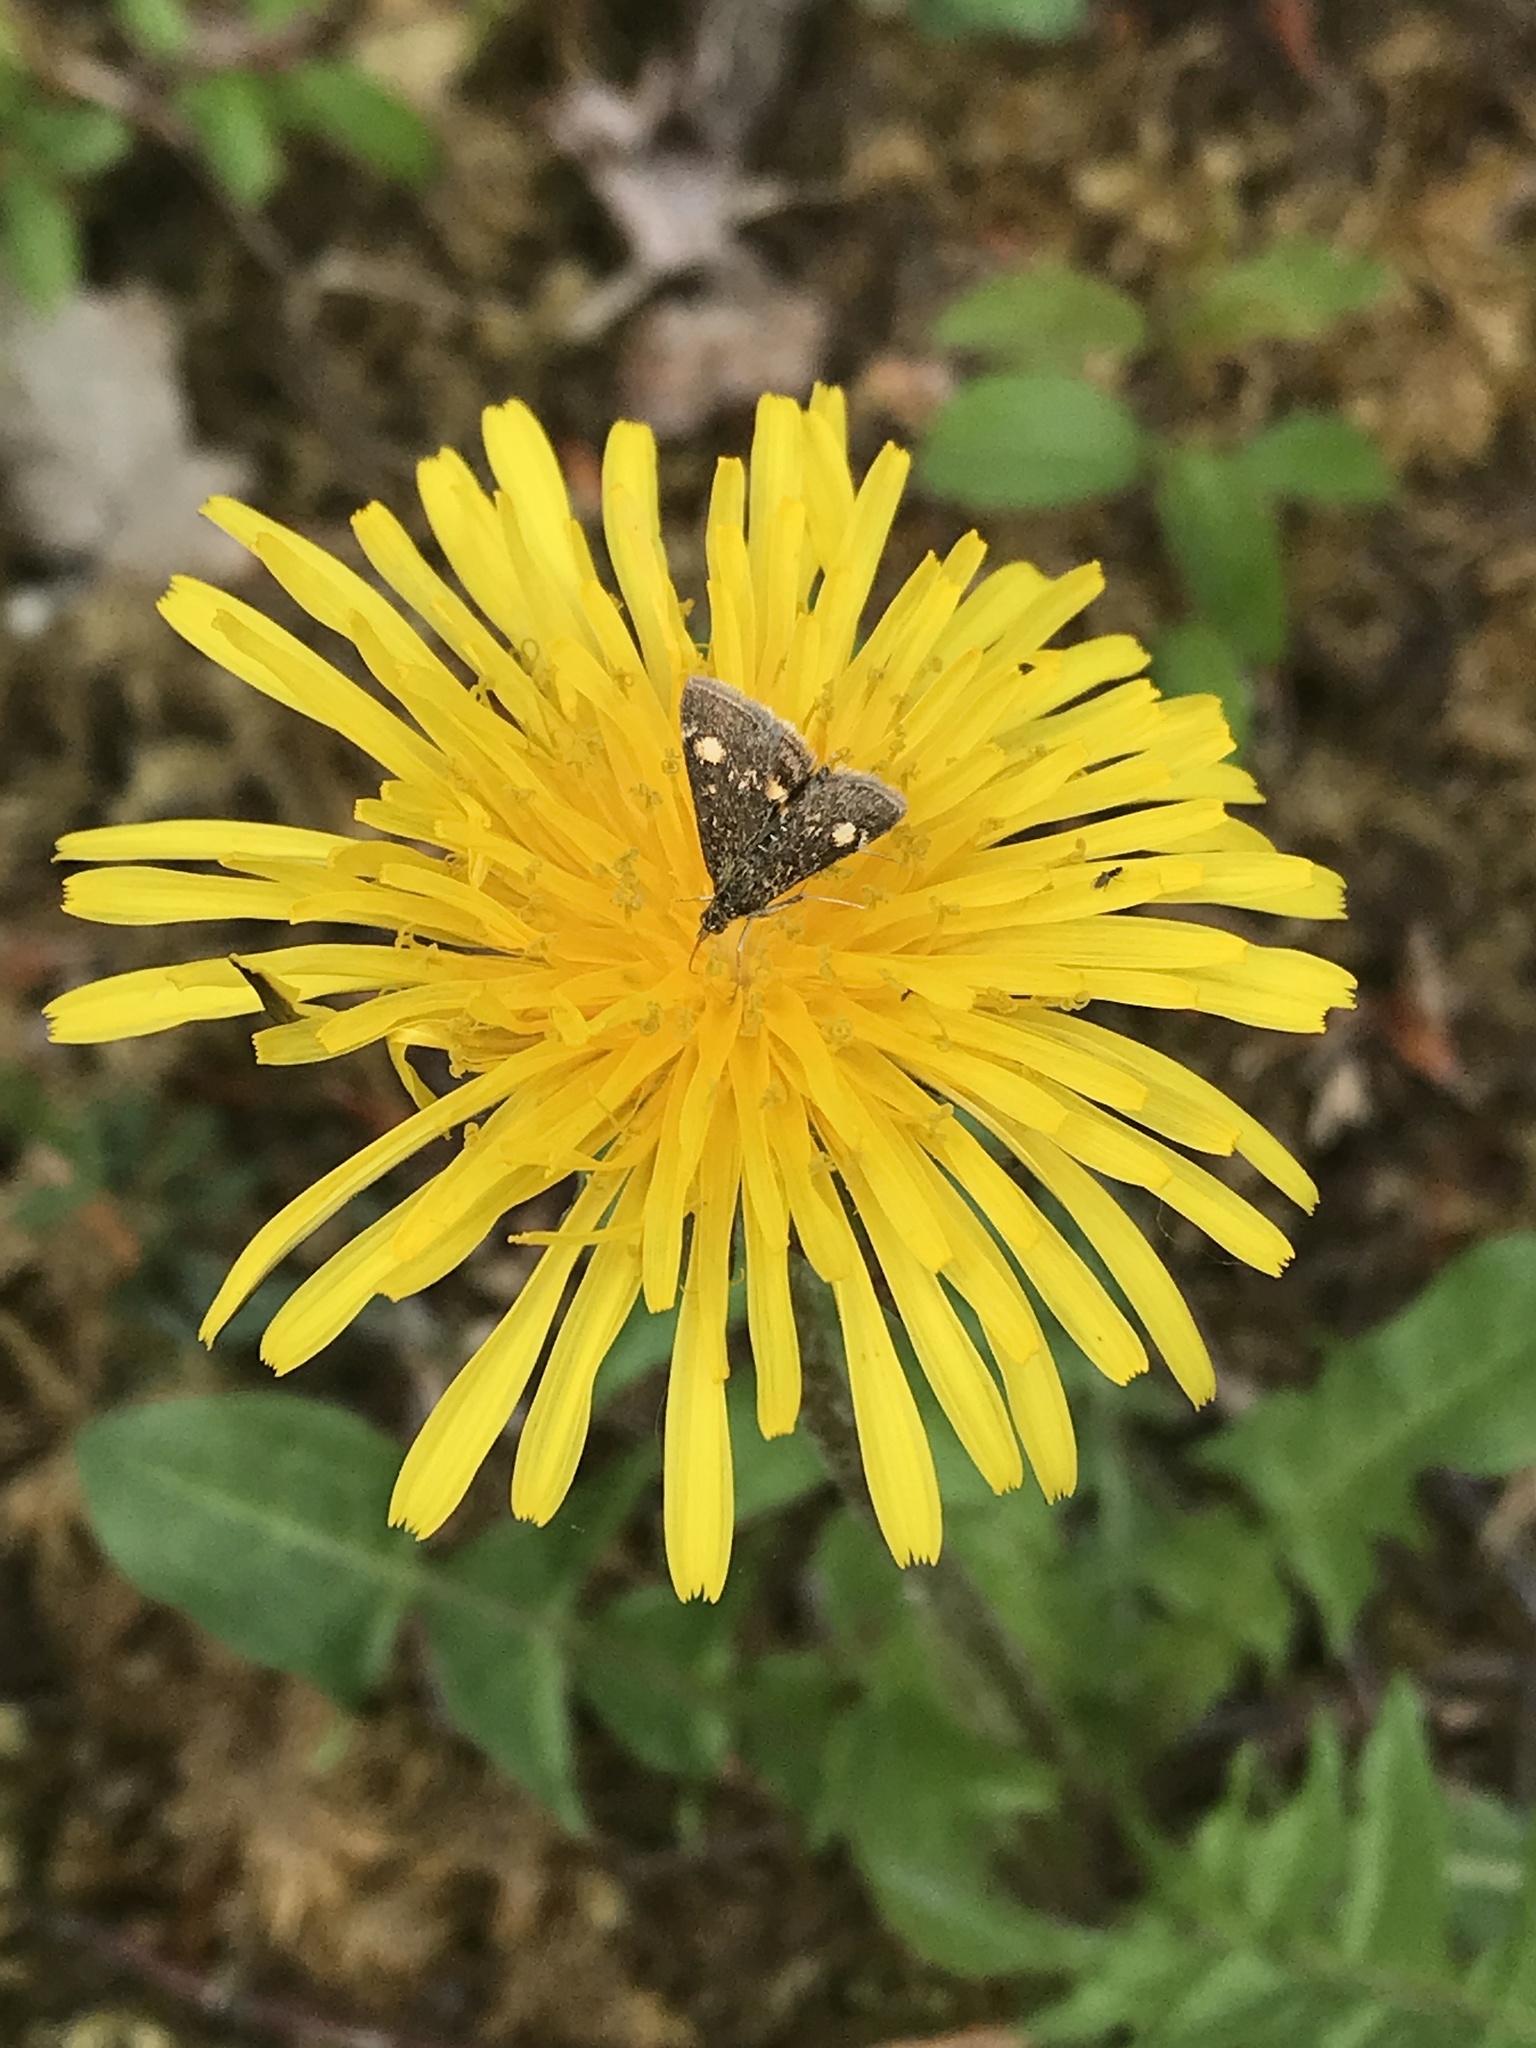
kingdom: Animalia
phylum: Arthropoda
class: Insecta
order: Lepidoptera
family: Crambidae
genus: Pyrausta
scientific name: Pyrausta aurata
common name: Small purple & gold
